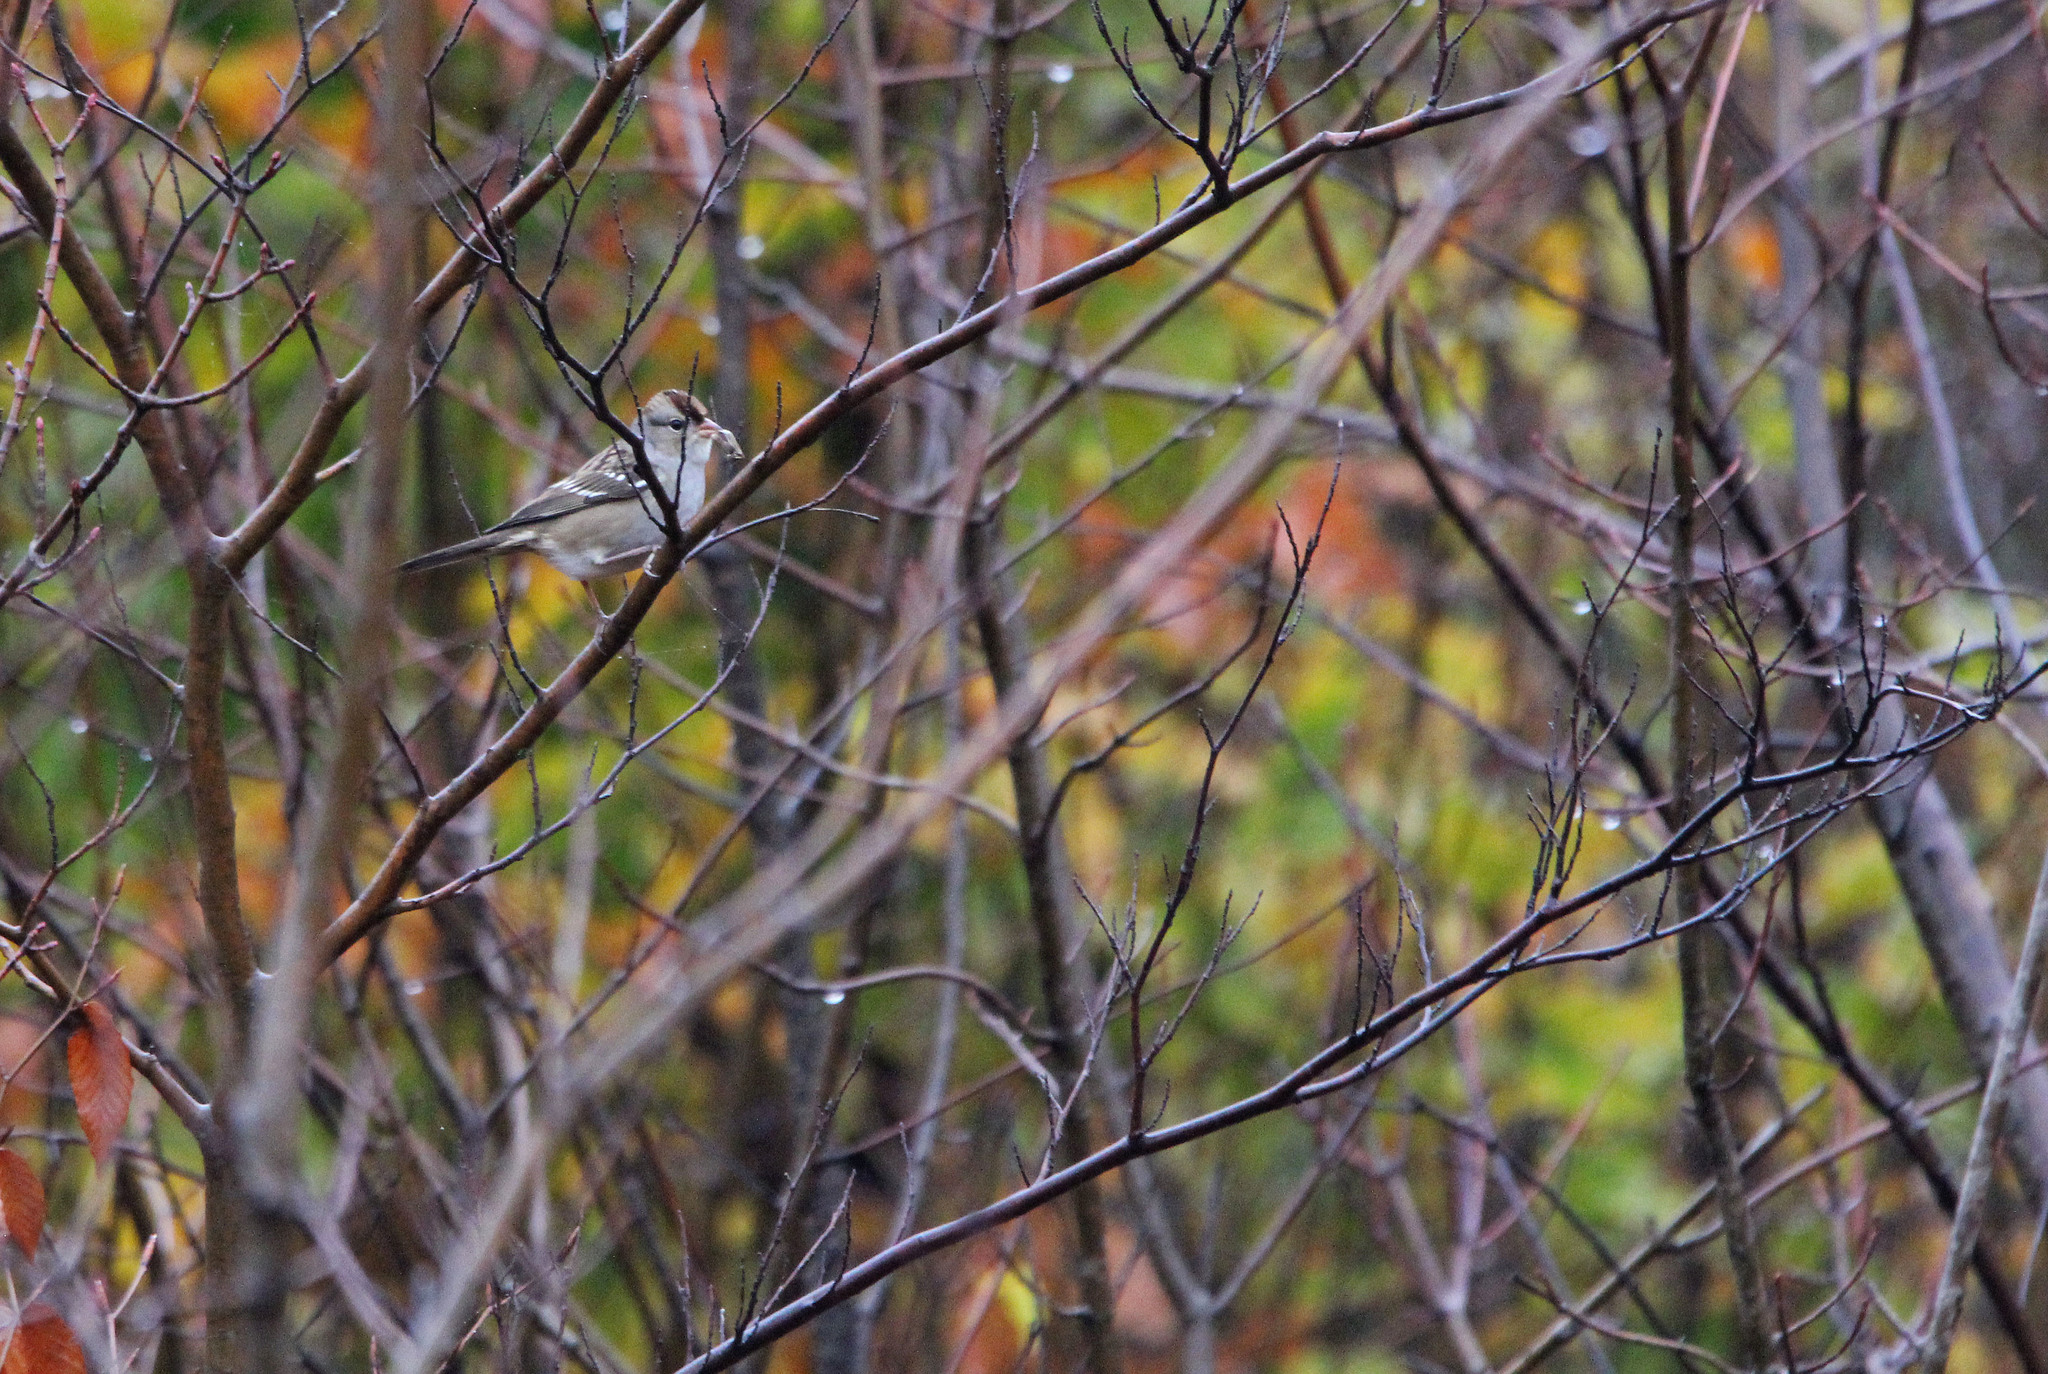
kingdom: Animalia
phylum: Chordata
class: Aves
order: Passeriformes
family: Passerellidae
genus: Zonotrichia
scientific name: Zonotrichia leucophrys
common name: White-crowned sparrow
